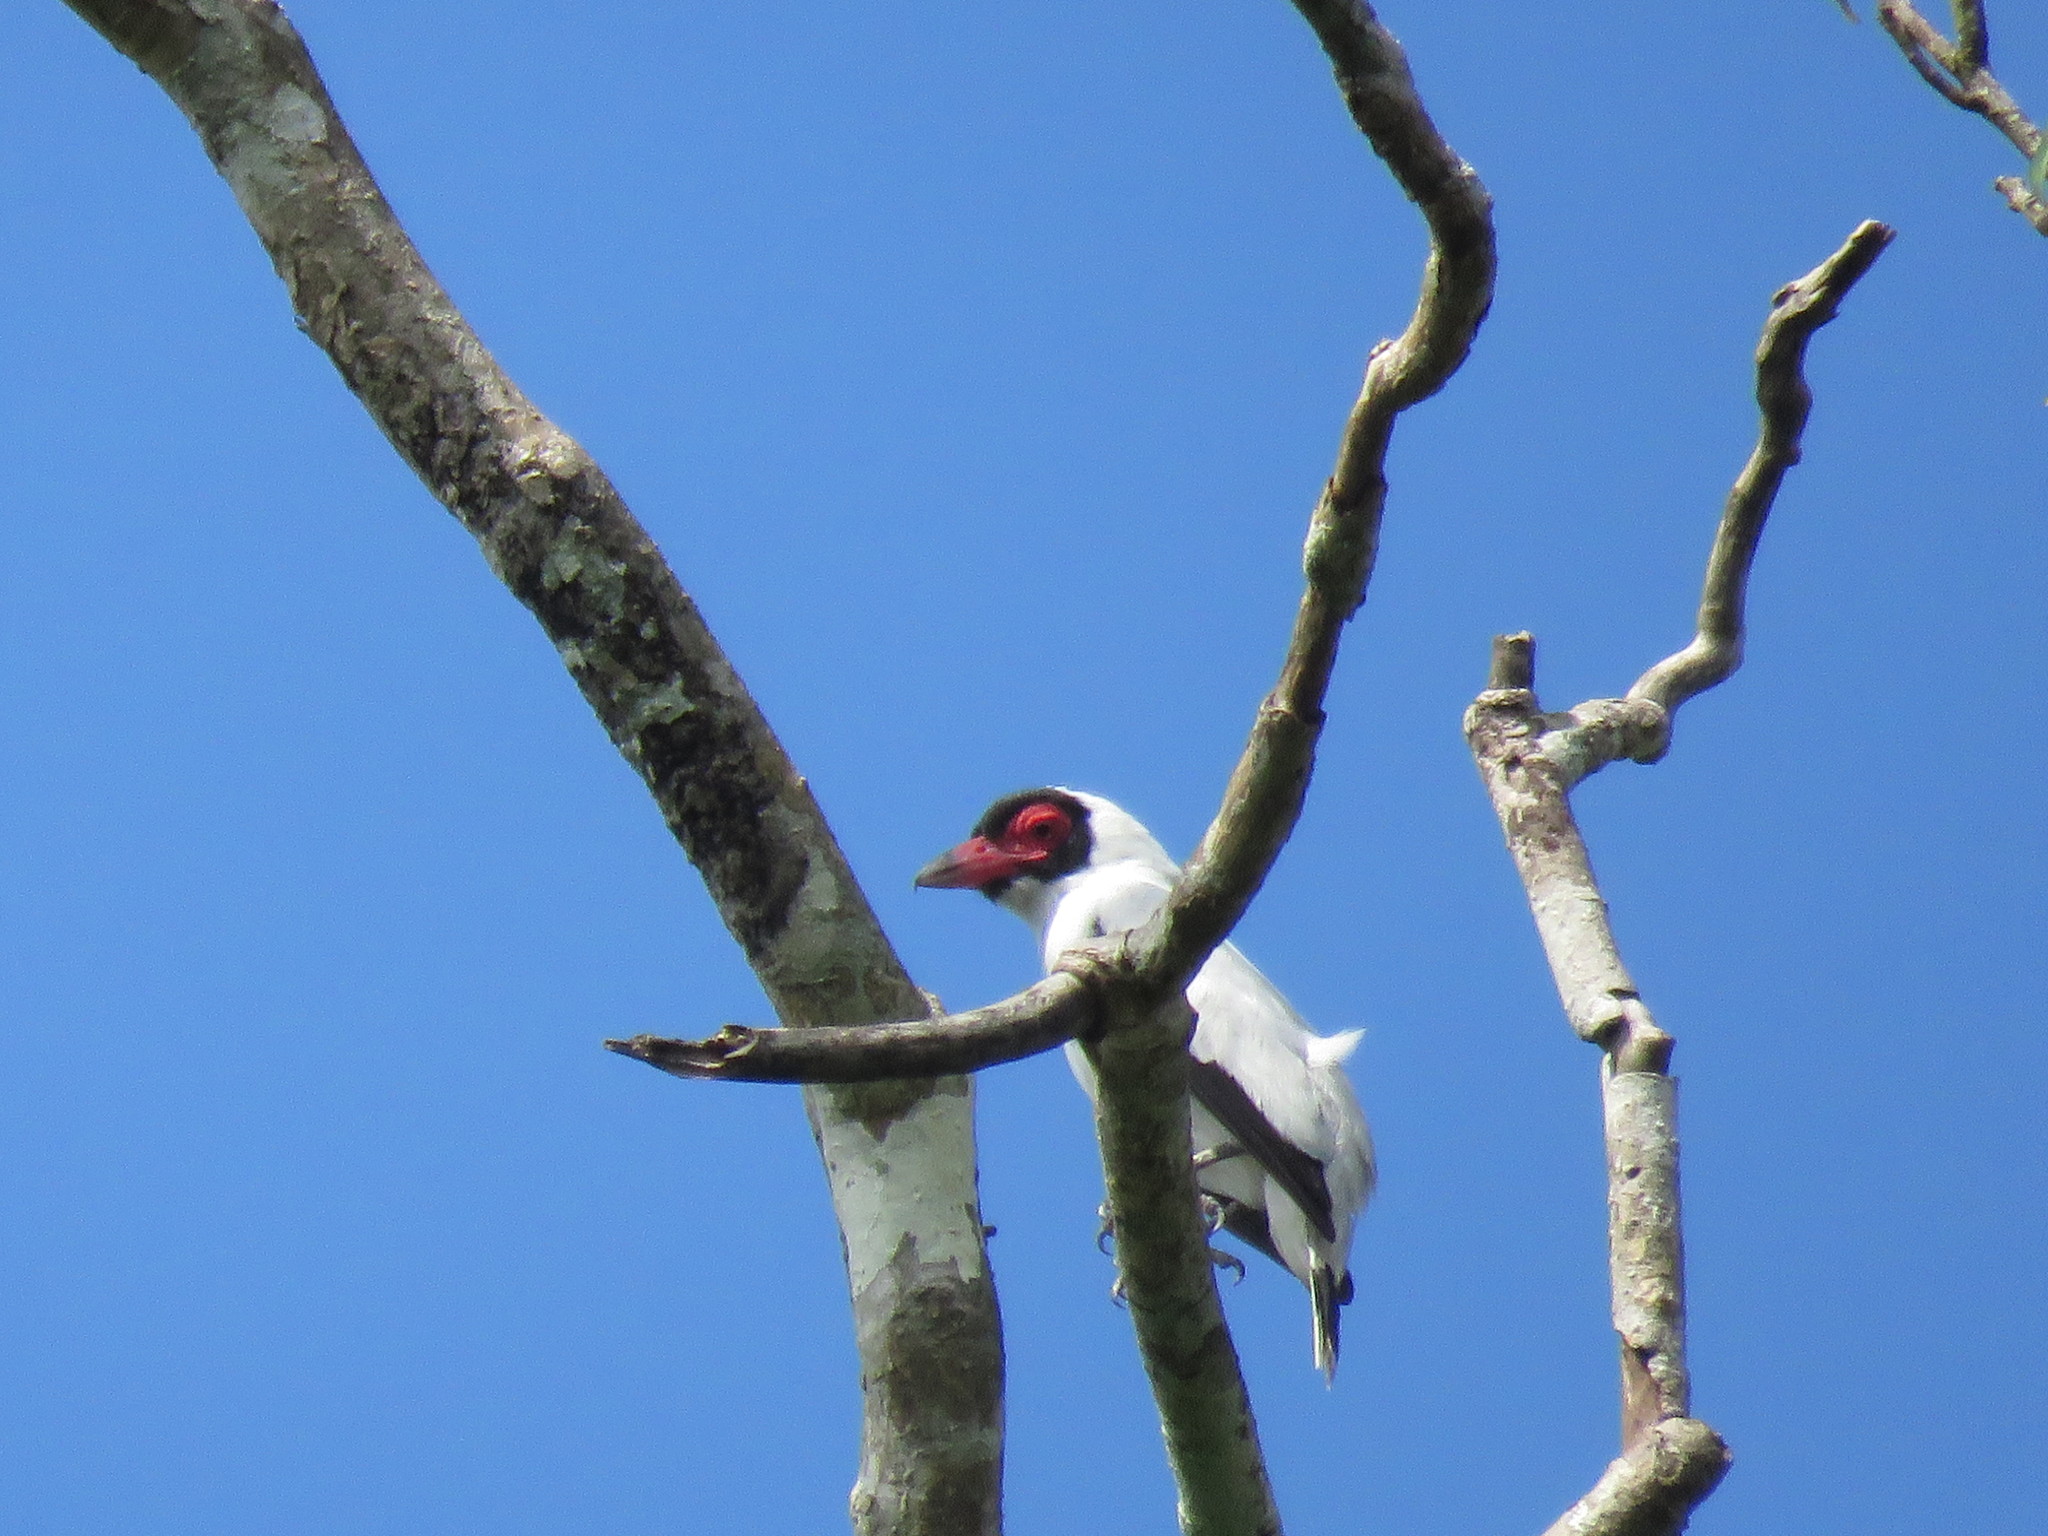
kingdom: Animalia
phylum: Chordata
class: Aves
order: Passeriformes
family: Cotingidae
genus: Tityra
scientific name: Tityra semifasciata
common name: Masked tityra
